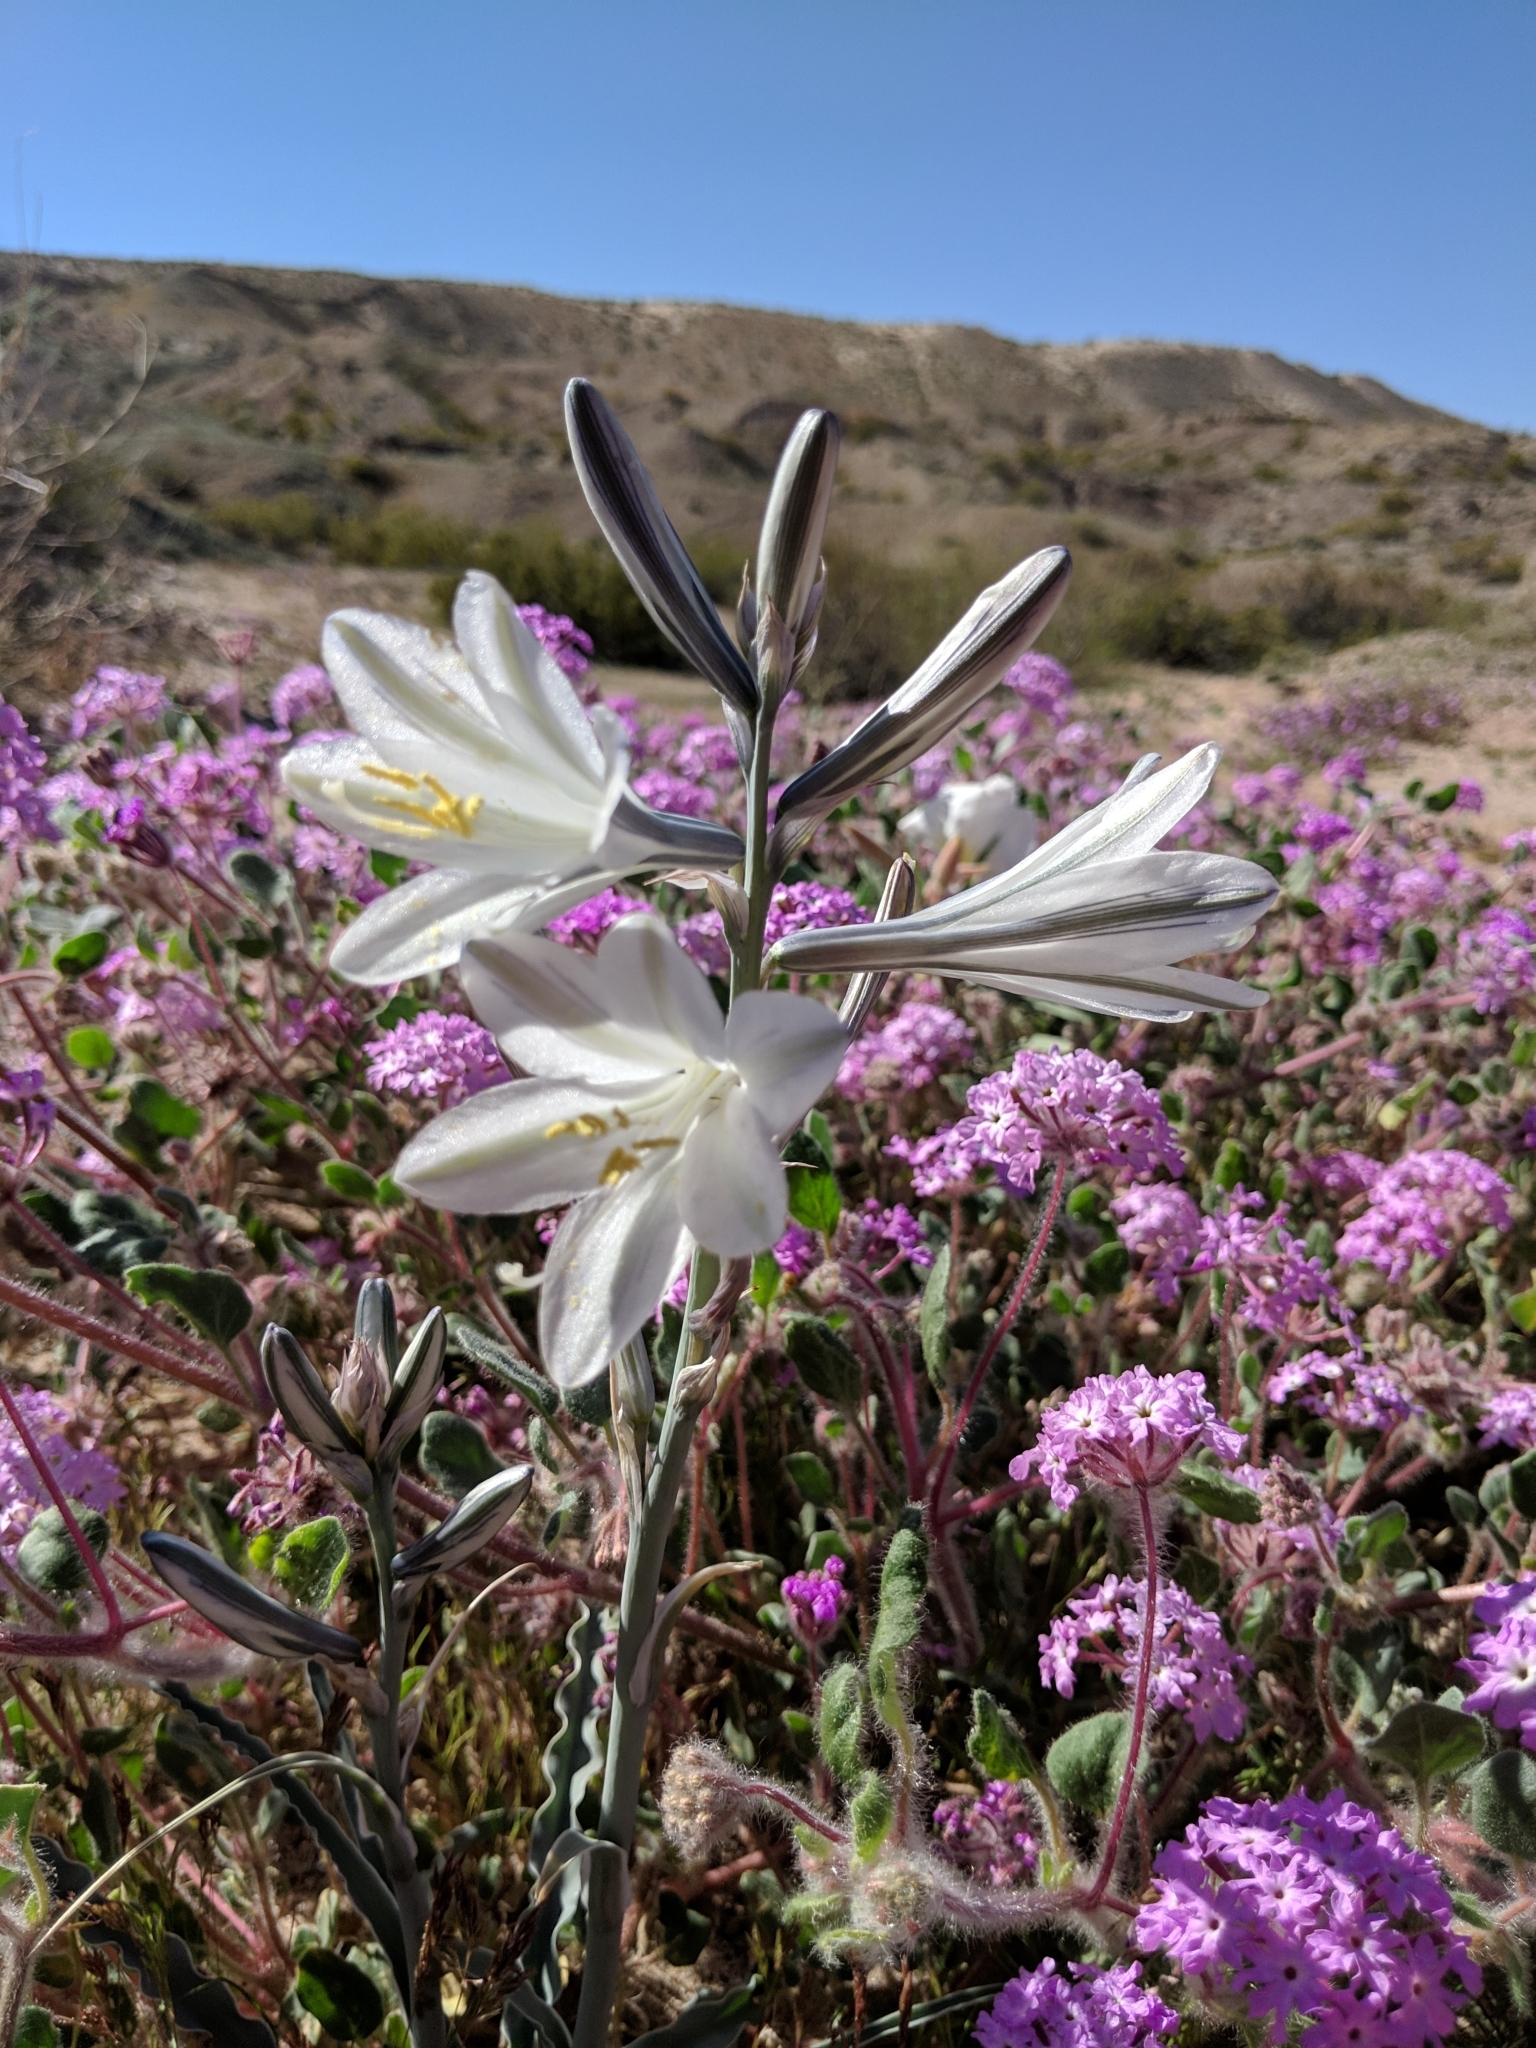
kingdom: Plantae
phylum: Tracheophyta
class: Liliopsida
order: Asparagales
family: Asparagaceae
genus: Hesperocallis
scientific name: Hesperocallis undulata
